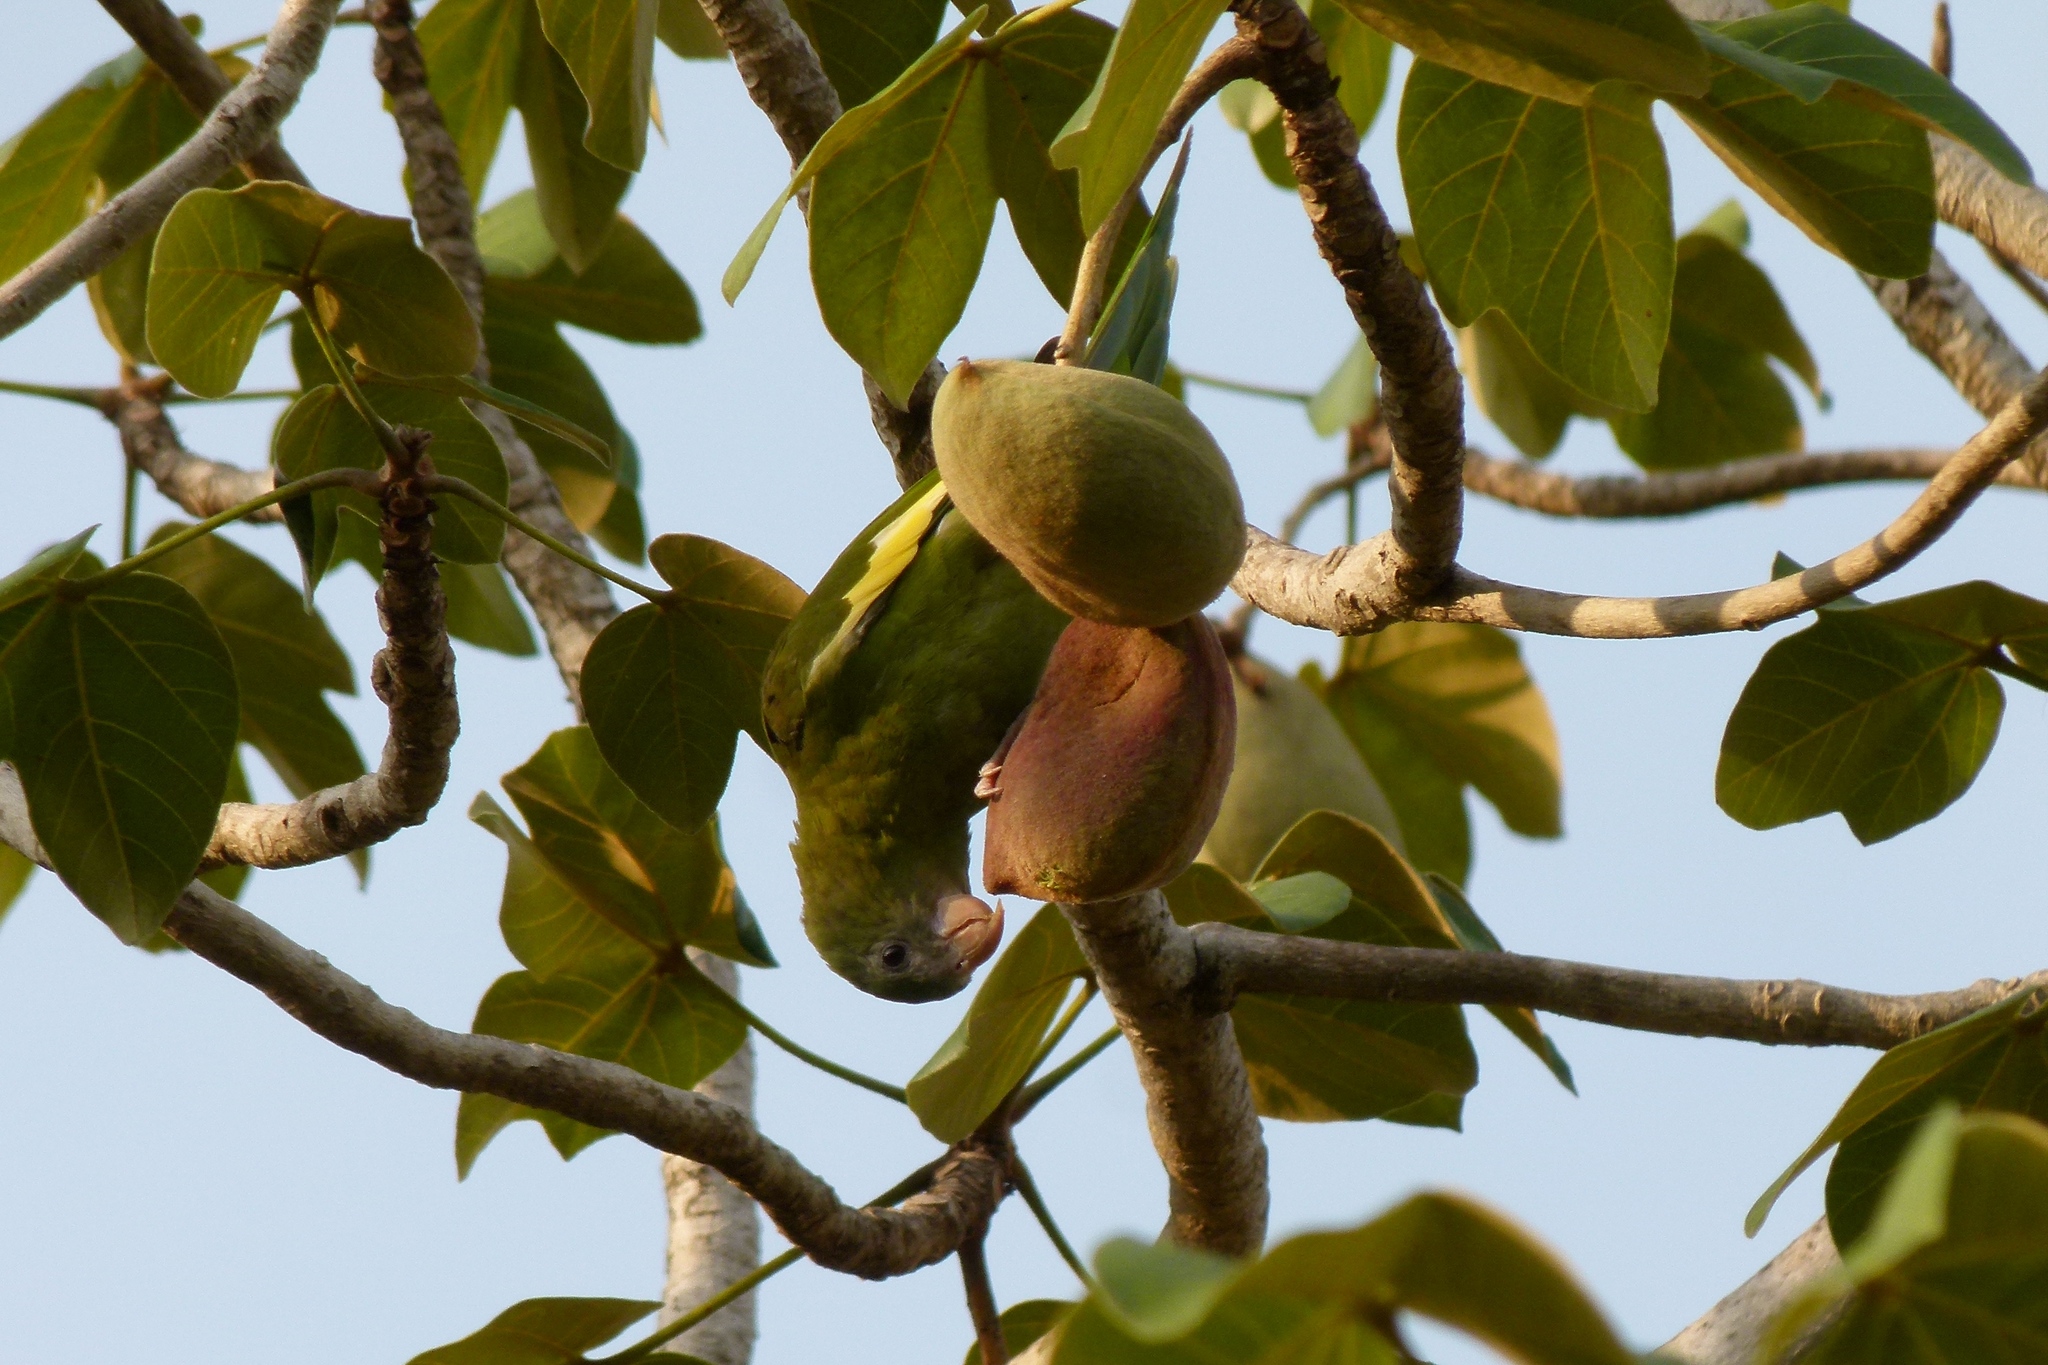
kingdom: Animalia
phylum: Chordata
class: Aves
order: Psittaciformes
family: Psittacidae
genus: Brotogeris
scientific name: Brotogeris versicolurus
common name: White-winged parakeet
